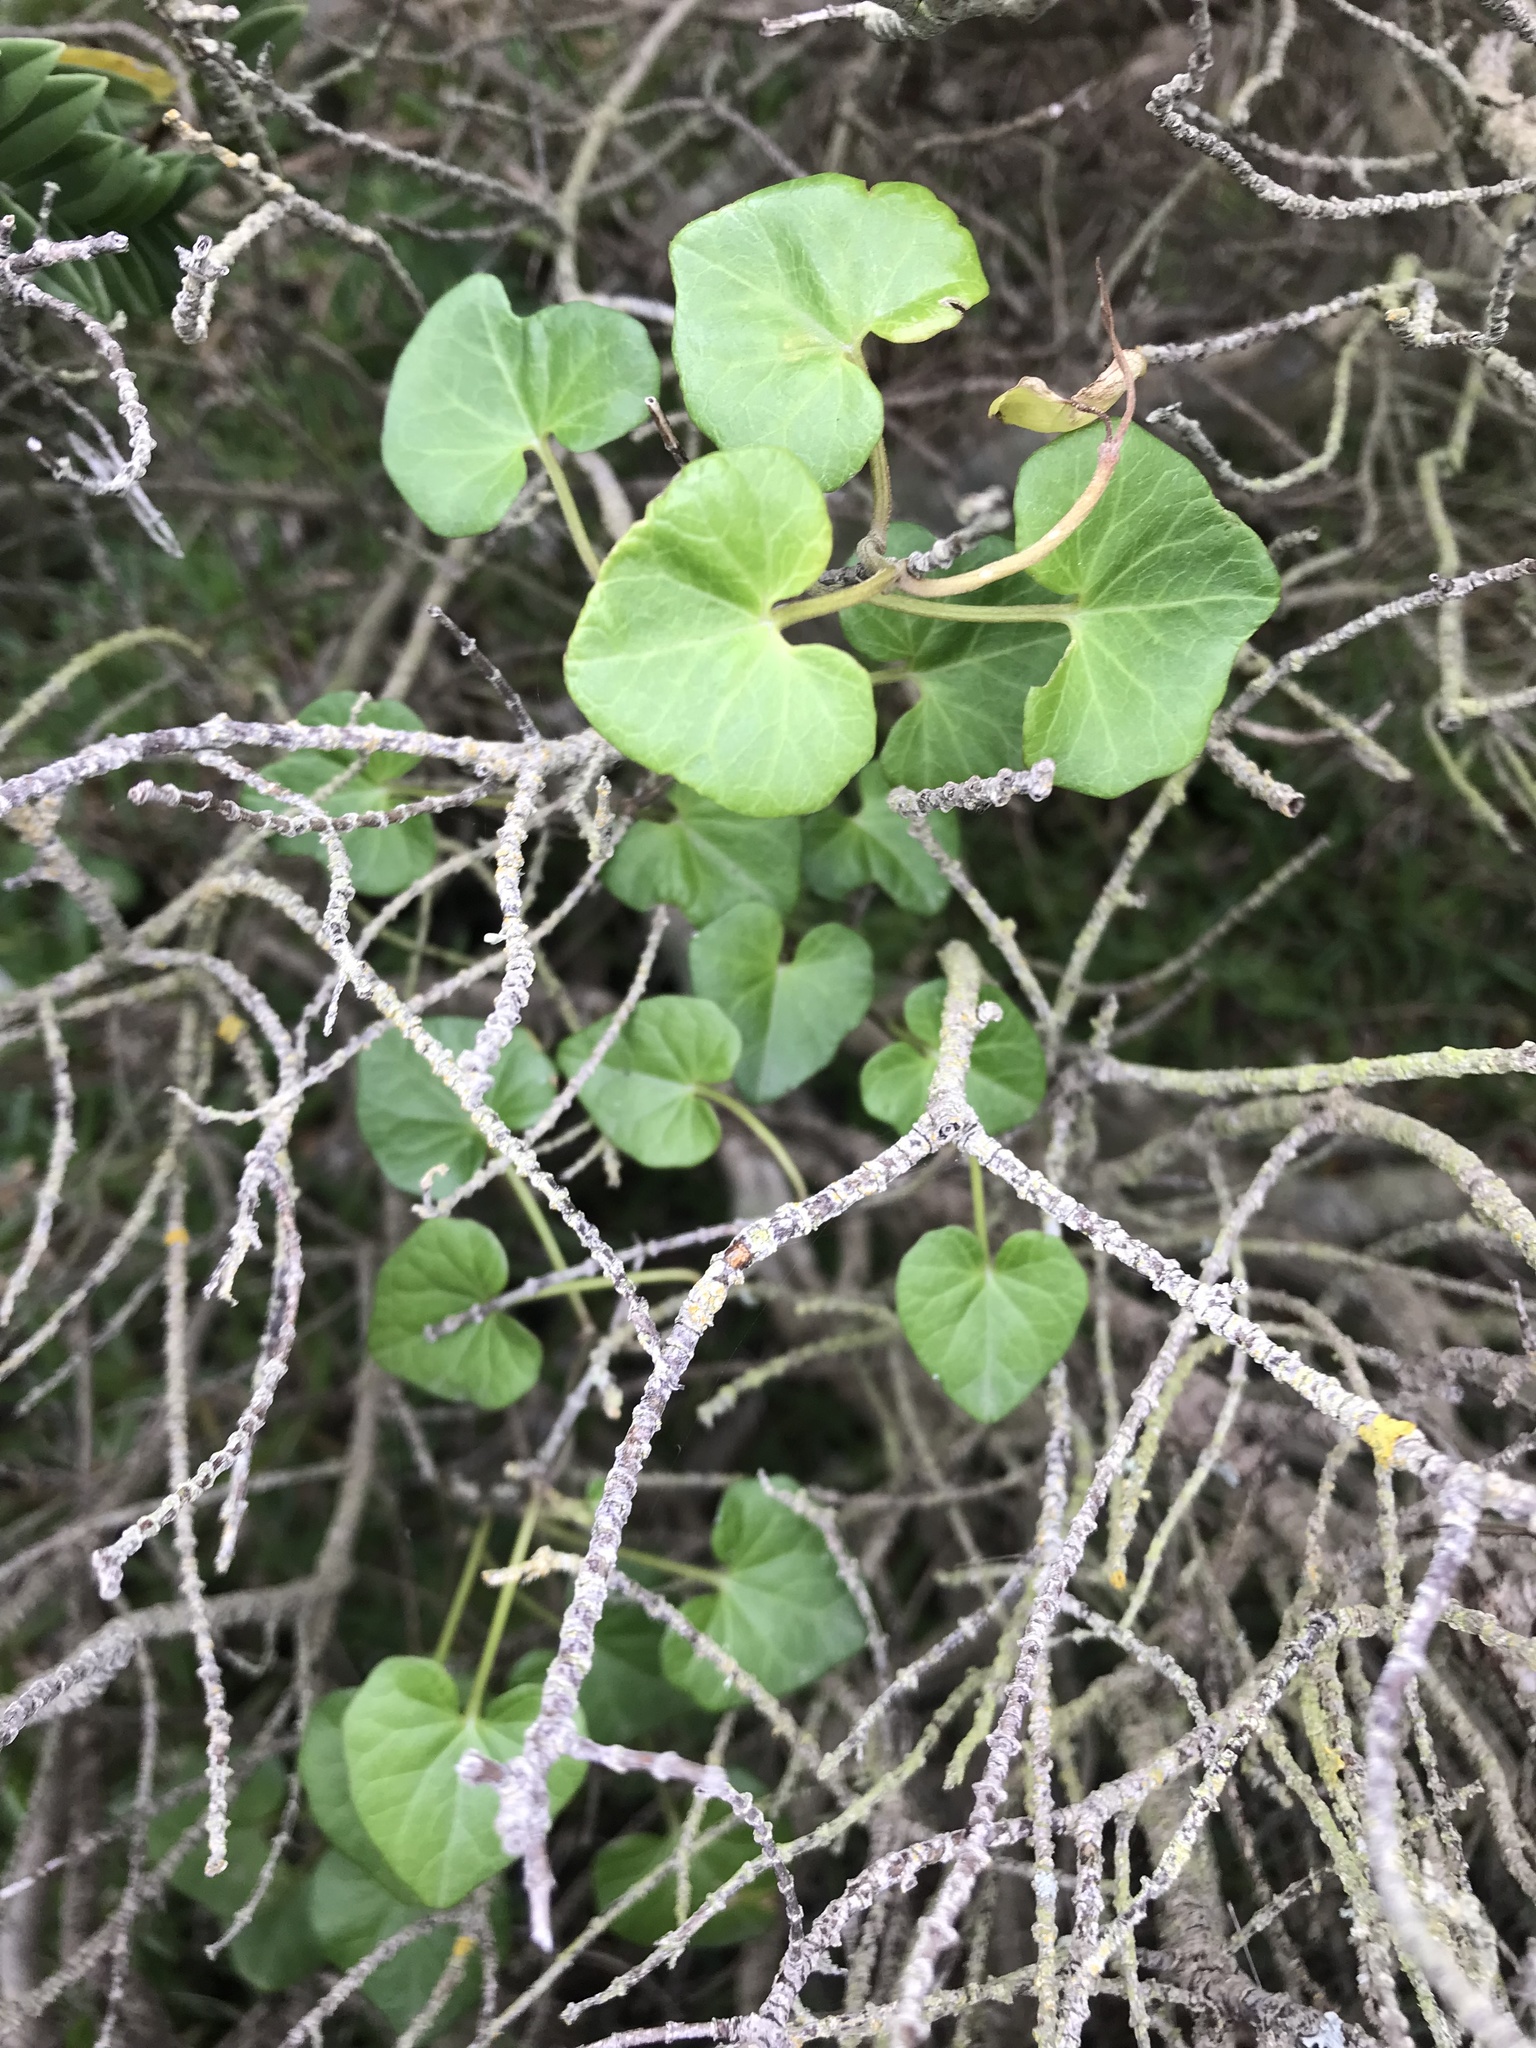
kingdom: Plantae
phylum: Tracheophyta
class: Magnoliopsida
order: Solanales
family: Convolvulaceae
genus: Calystegia
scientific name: Calystegia
